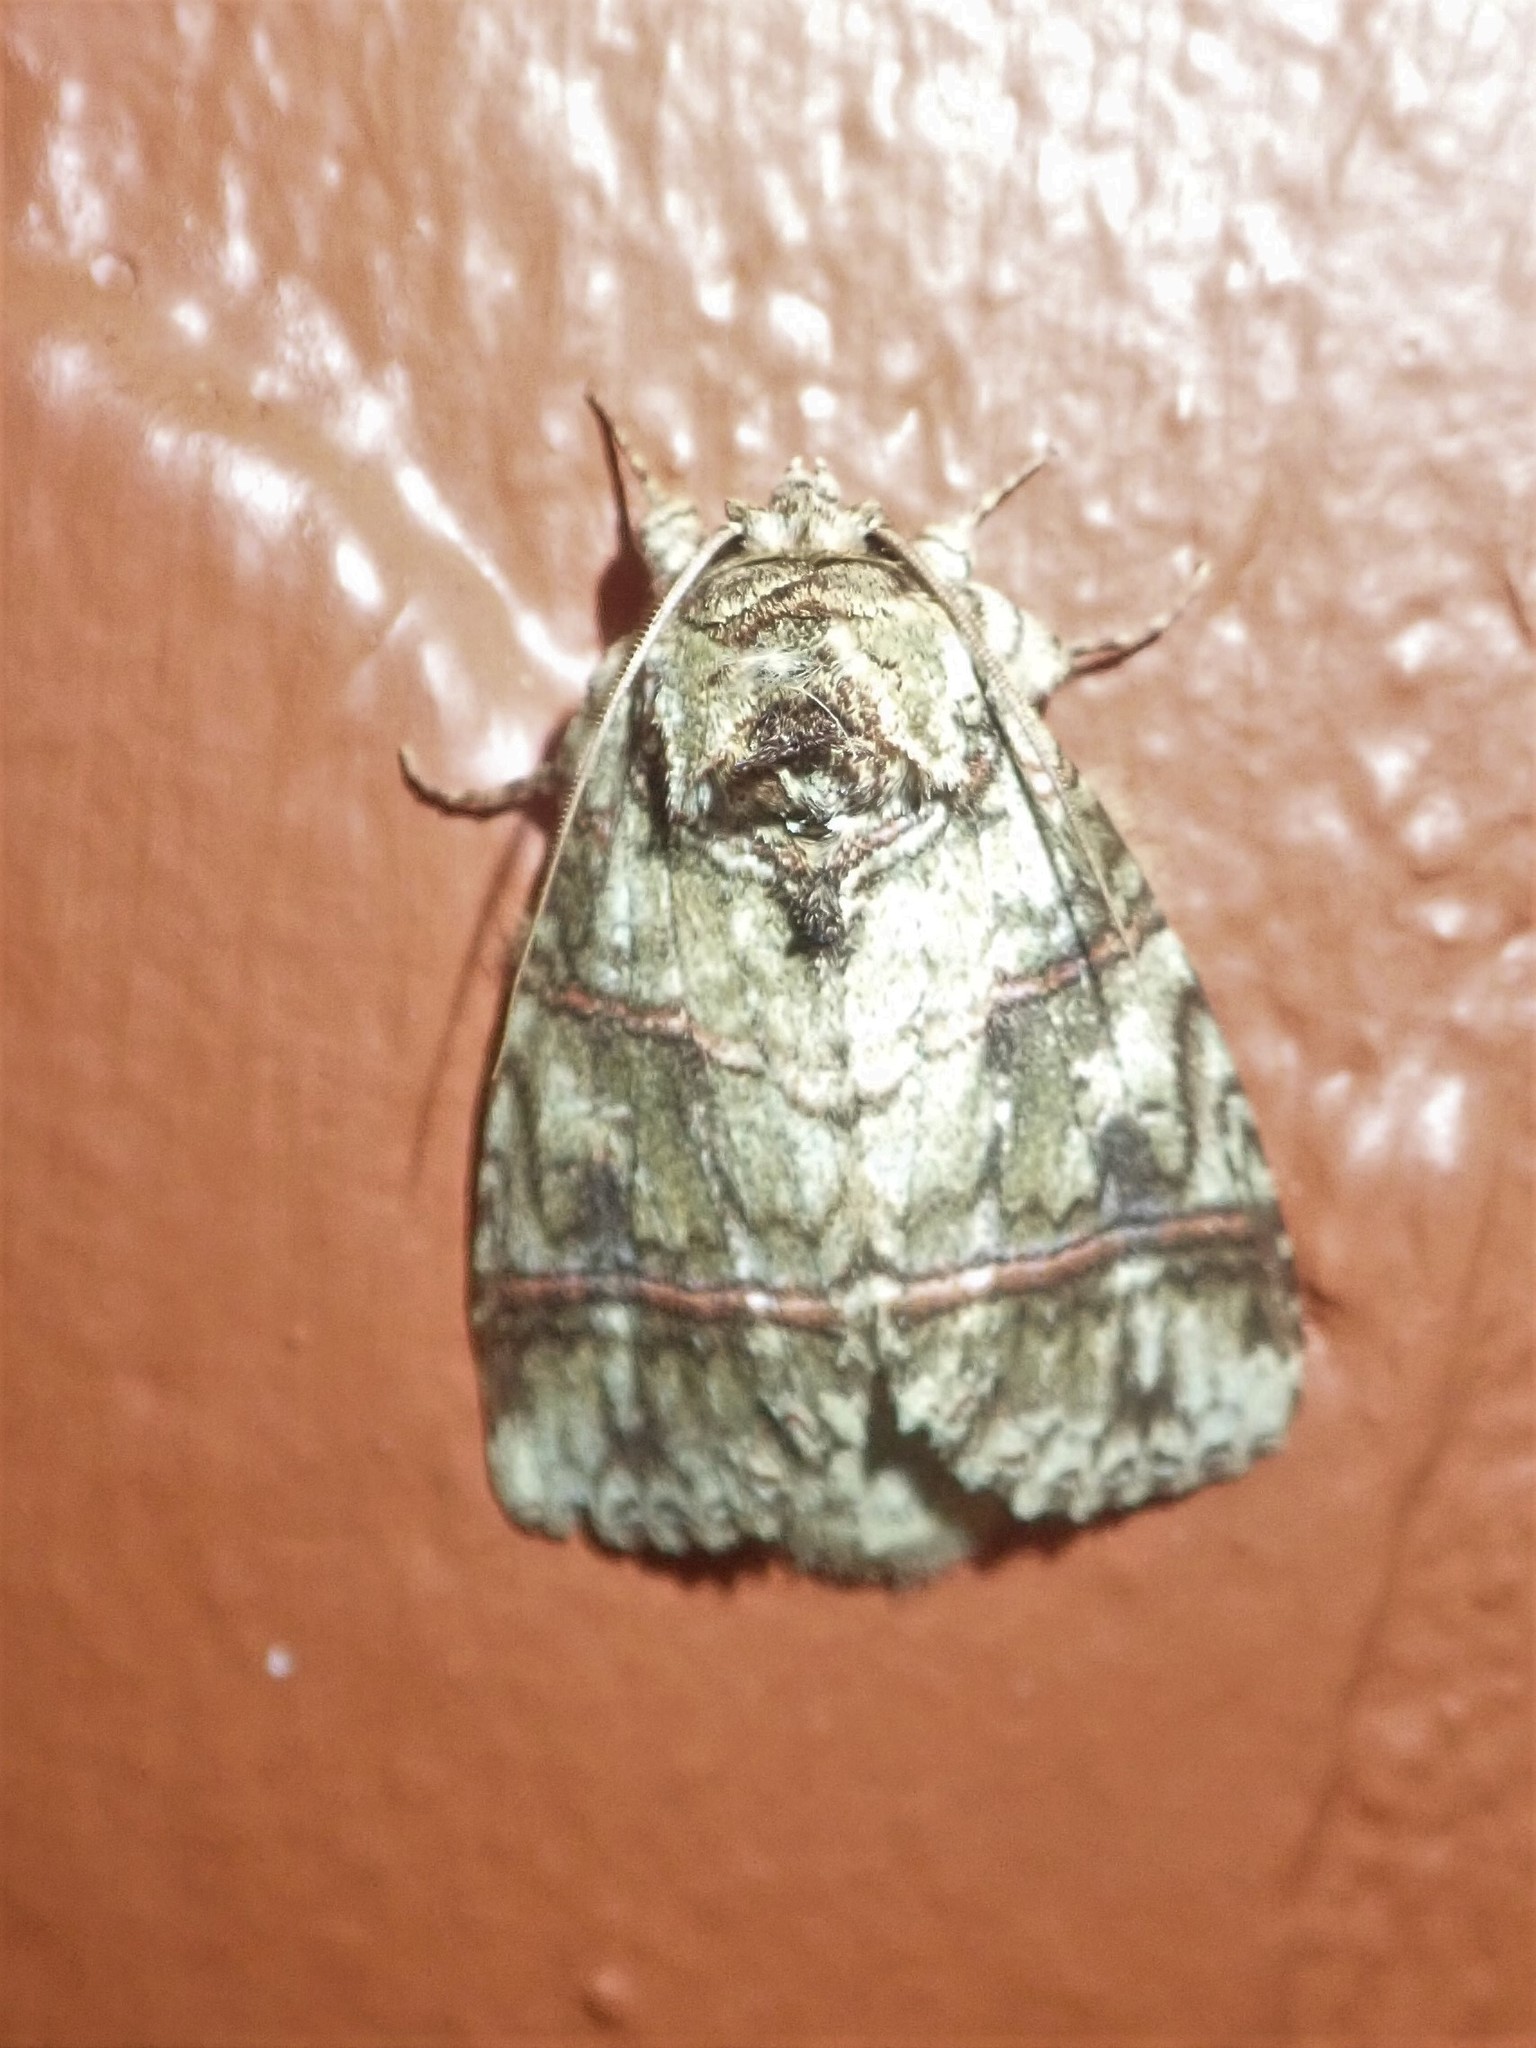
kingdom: Animalia
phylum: Arthropoda
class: Insecta
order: Lepidoptera
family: Notodontidae
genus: Eragisa
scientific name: Eragisa barnesi
